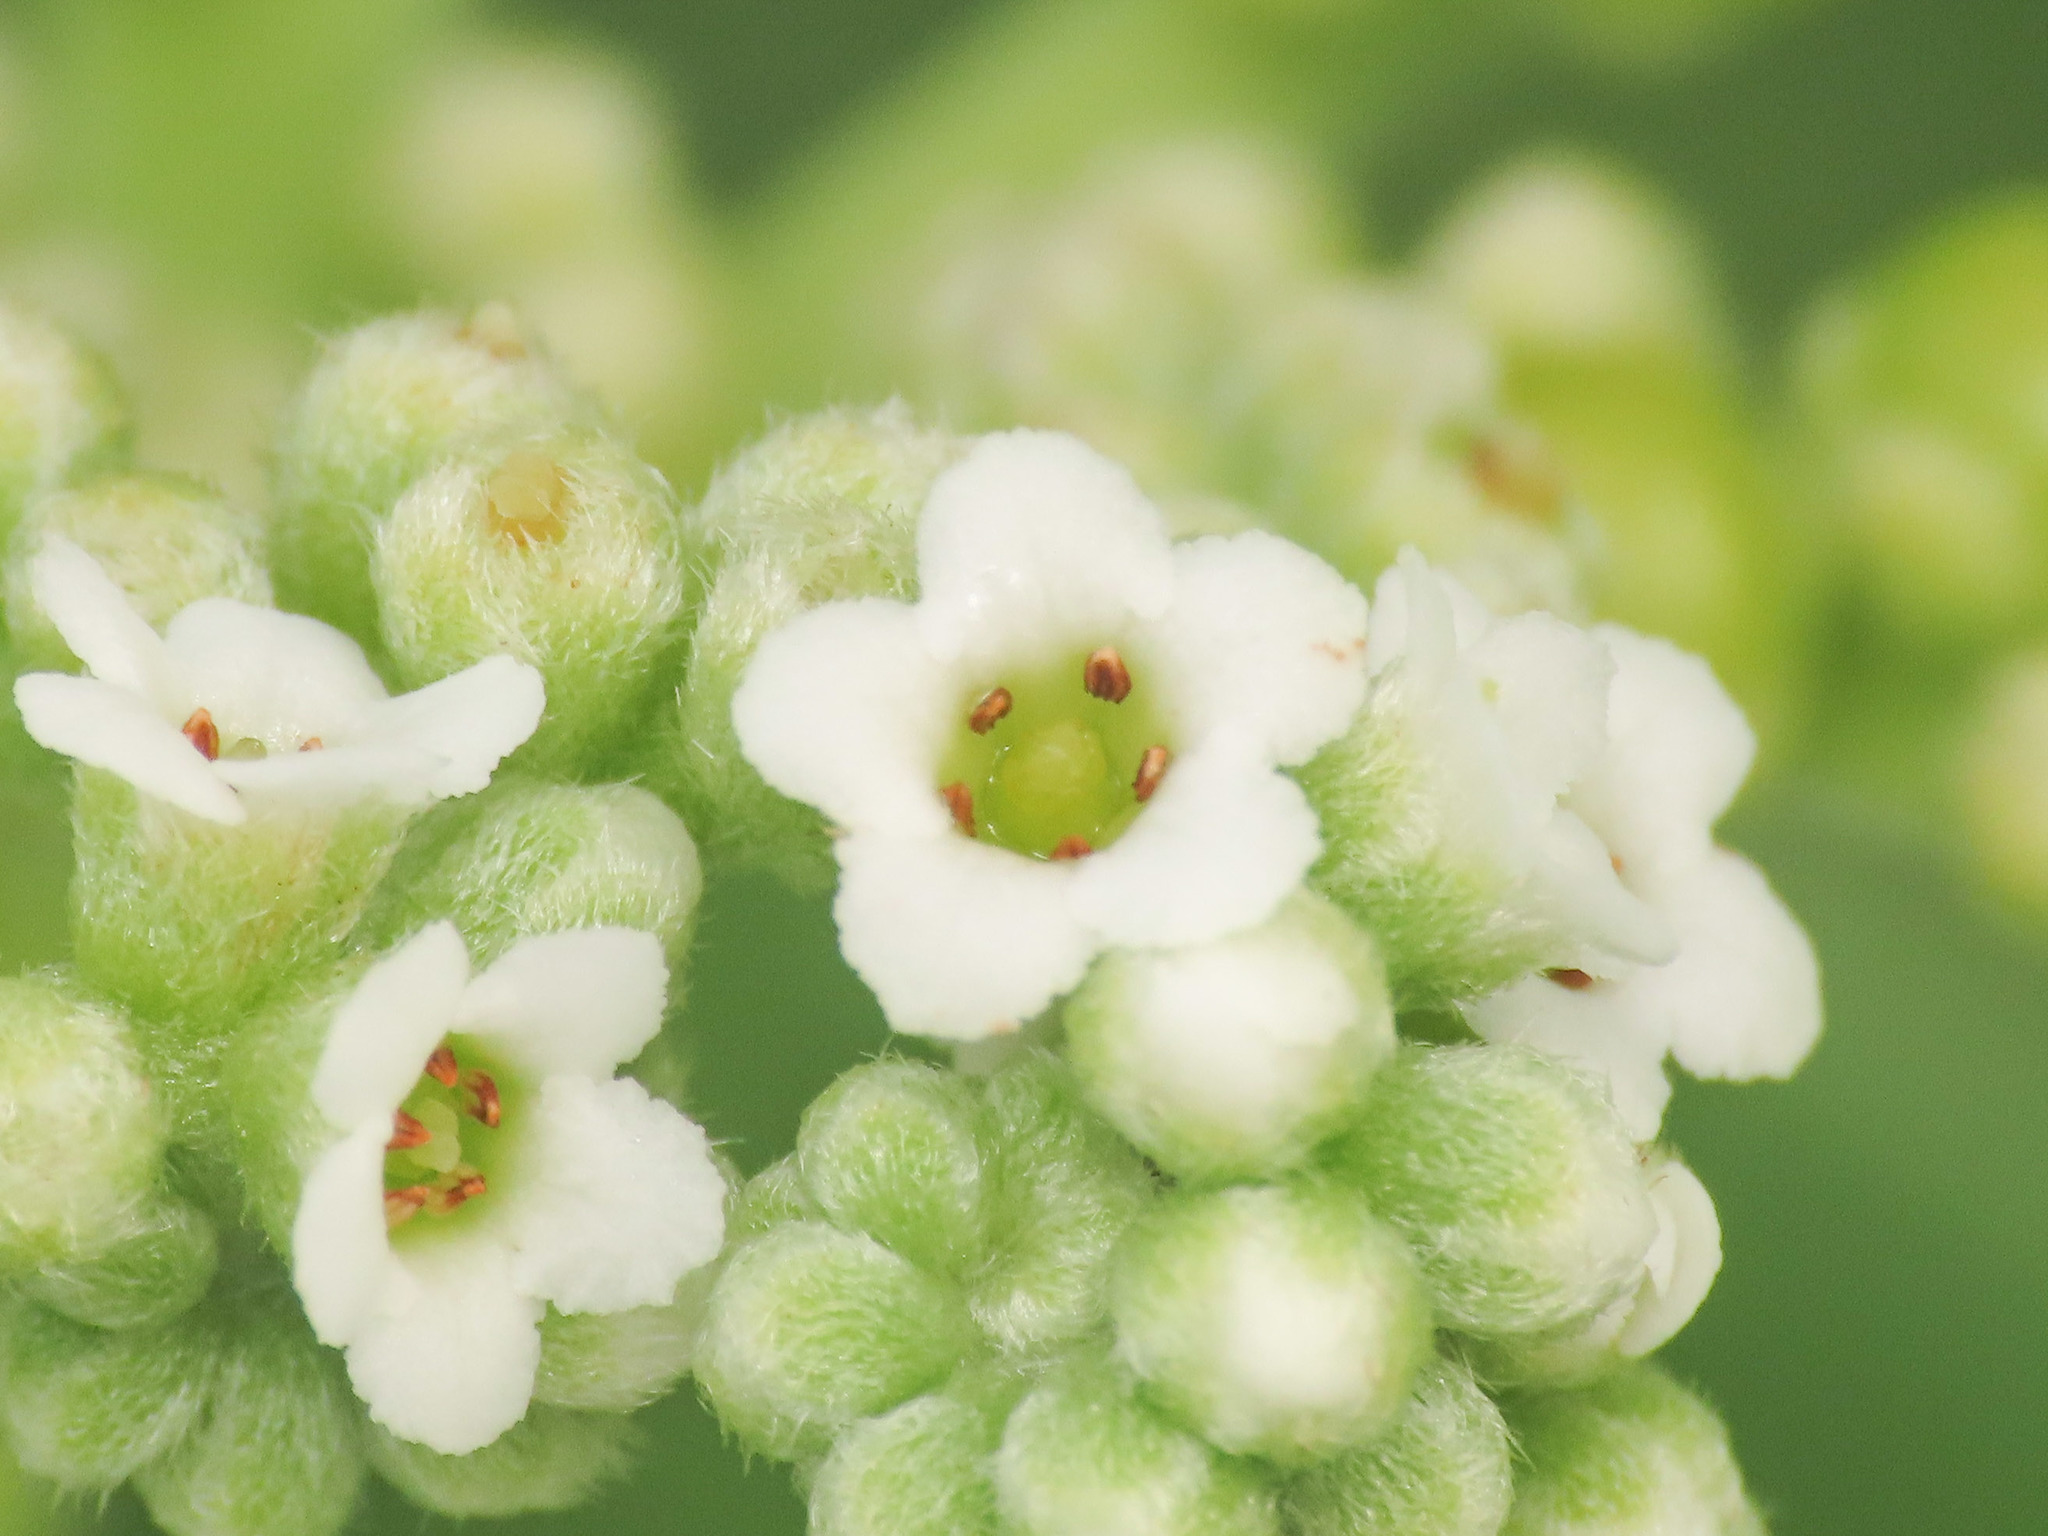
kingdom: Plantae
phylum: Tracheophyta
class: Magnoliopsida
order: Boraginales
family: Heliotropiaceae
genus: Heliotropium
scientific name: Heliotropium velutinum
